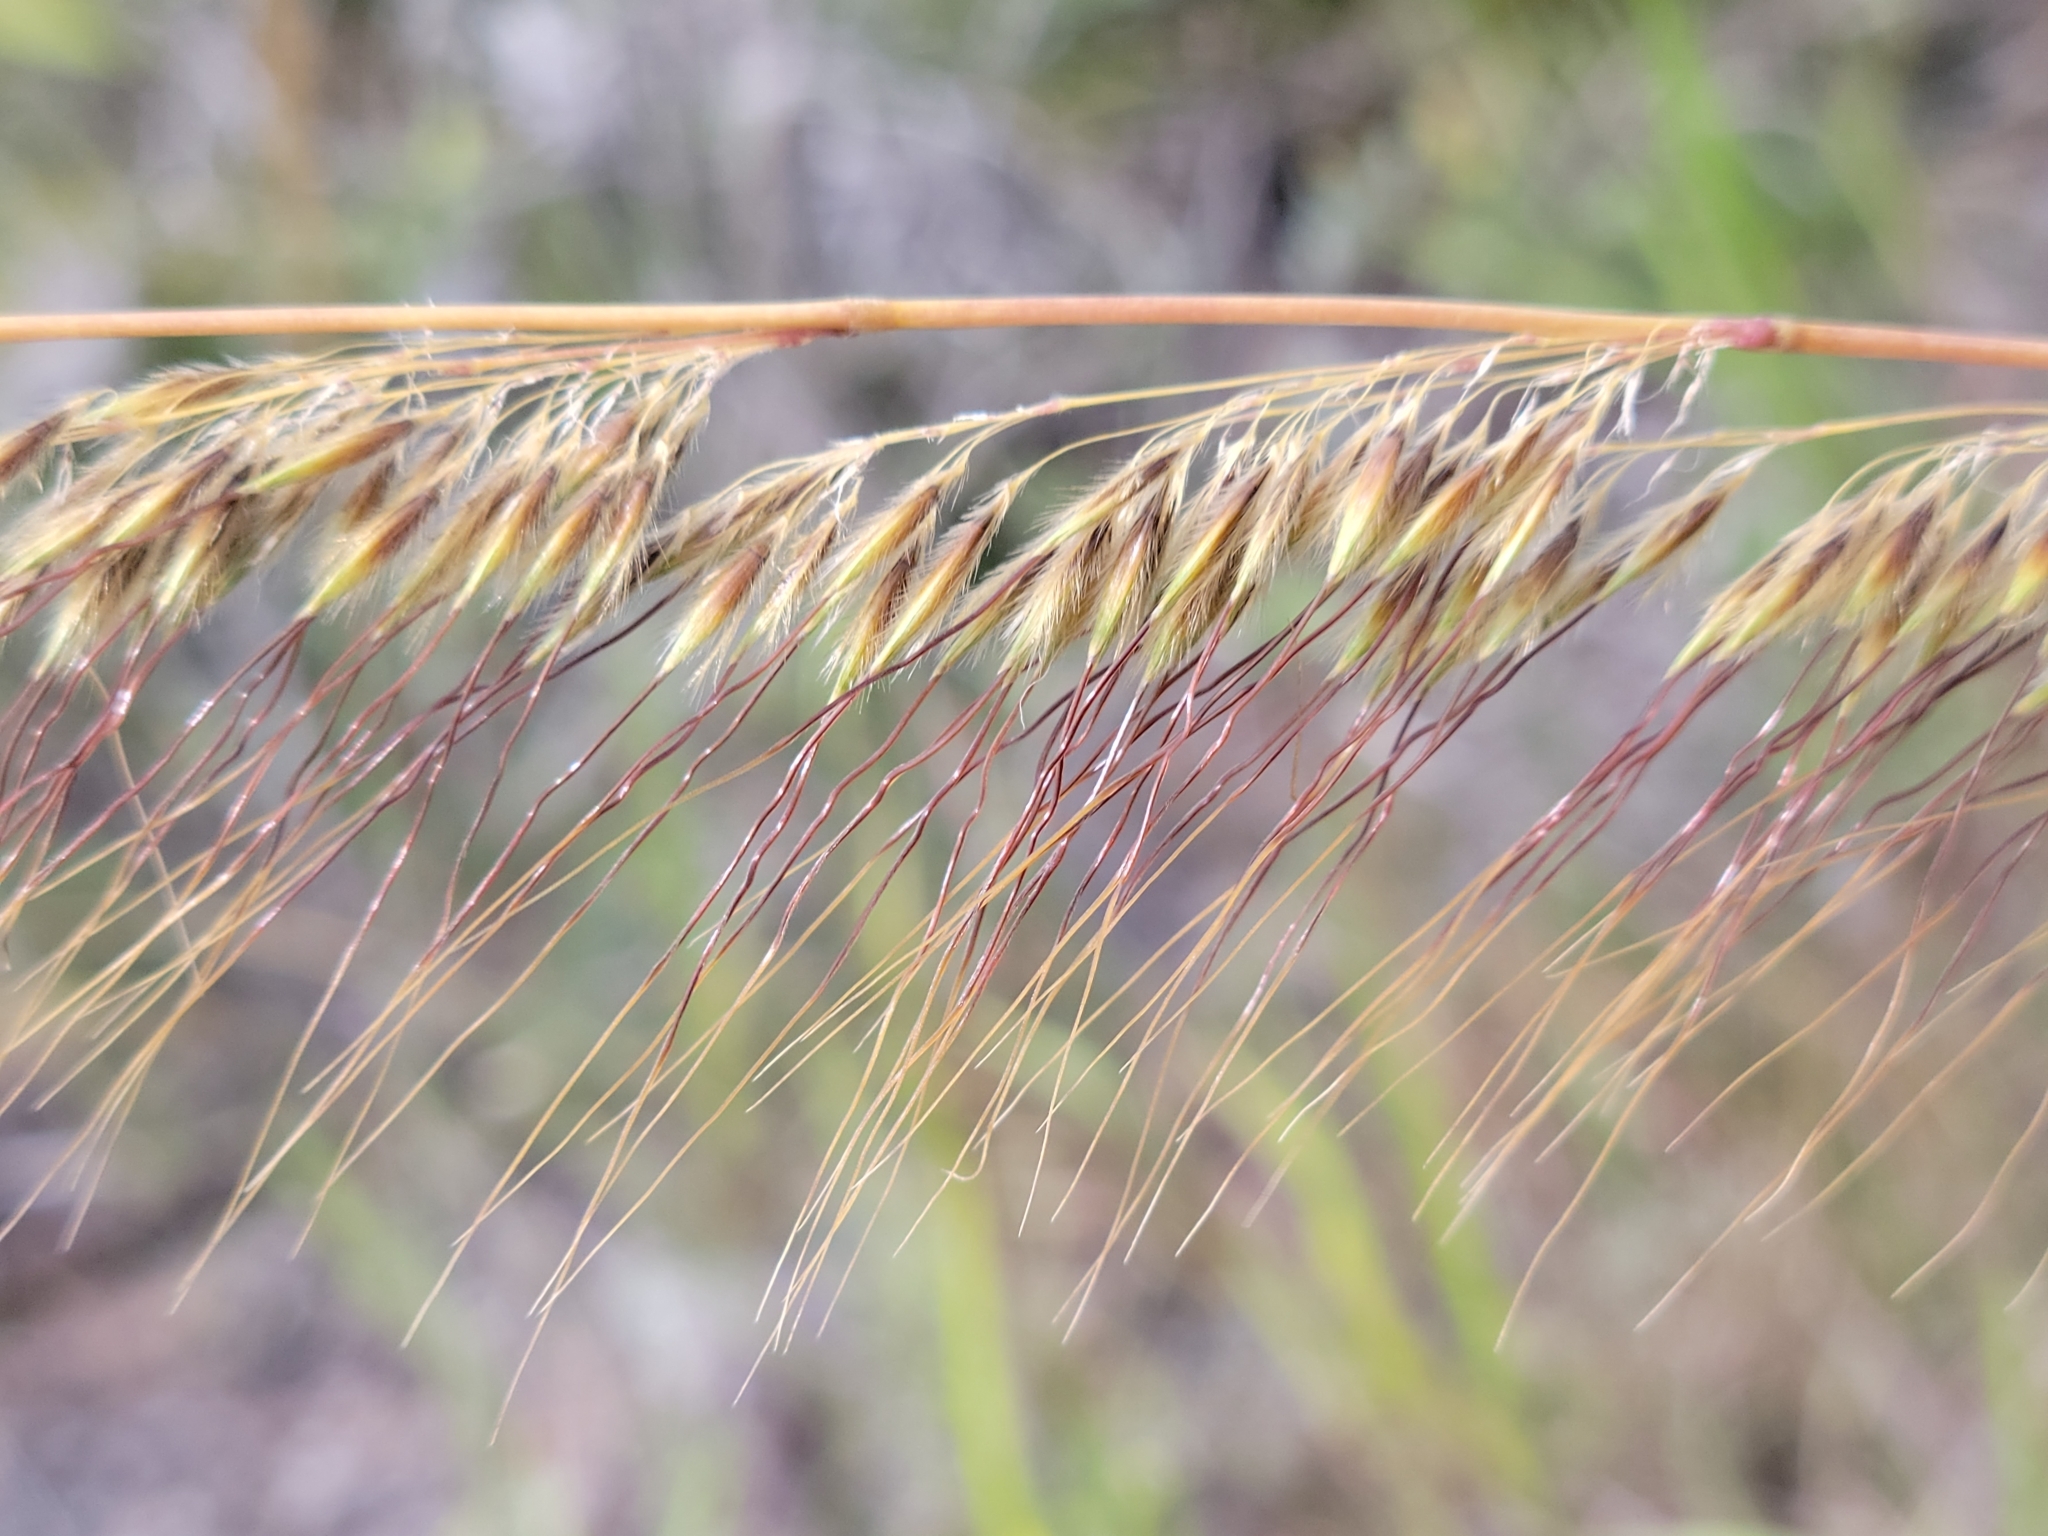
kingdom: Plantae
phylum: Tracheophyta
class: Liliopsida
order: Poales
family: Poaceae
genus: Sorghastrum
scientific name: Sorghastrum secundum
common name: Lopsided indian grass
